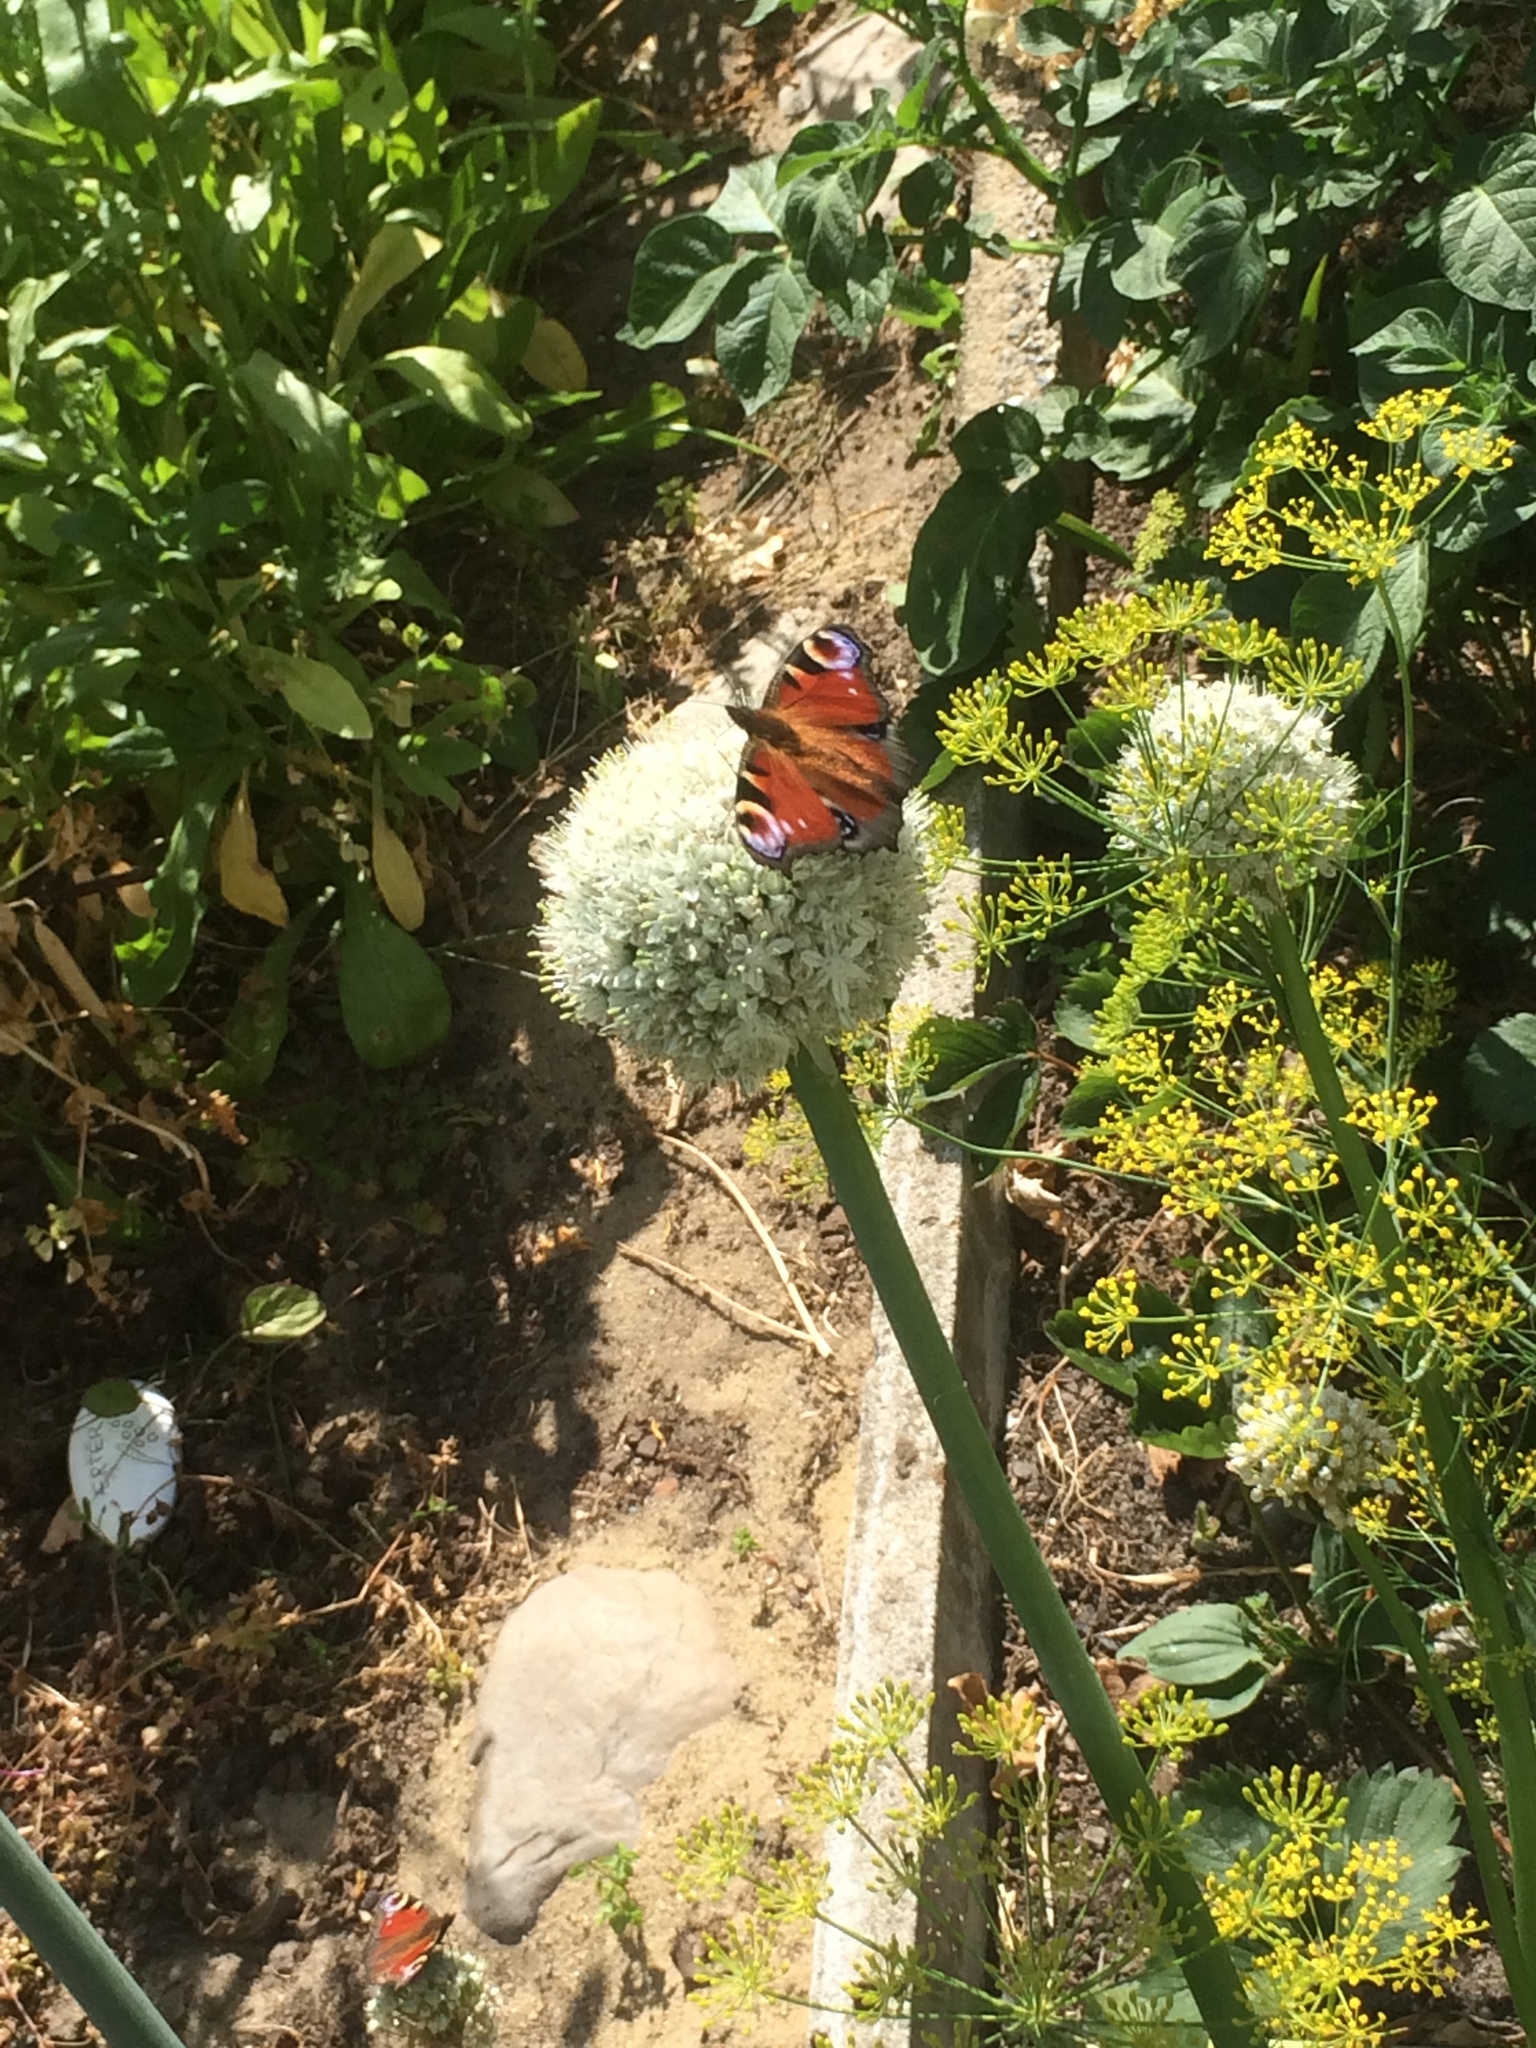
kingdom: Animalia
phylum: Arthropoda
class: Insecta
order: Lepidoptera
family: Nymphalidae
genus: Aglais
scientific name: Aglais io
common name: Peacock
